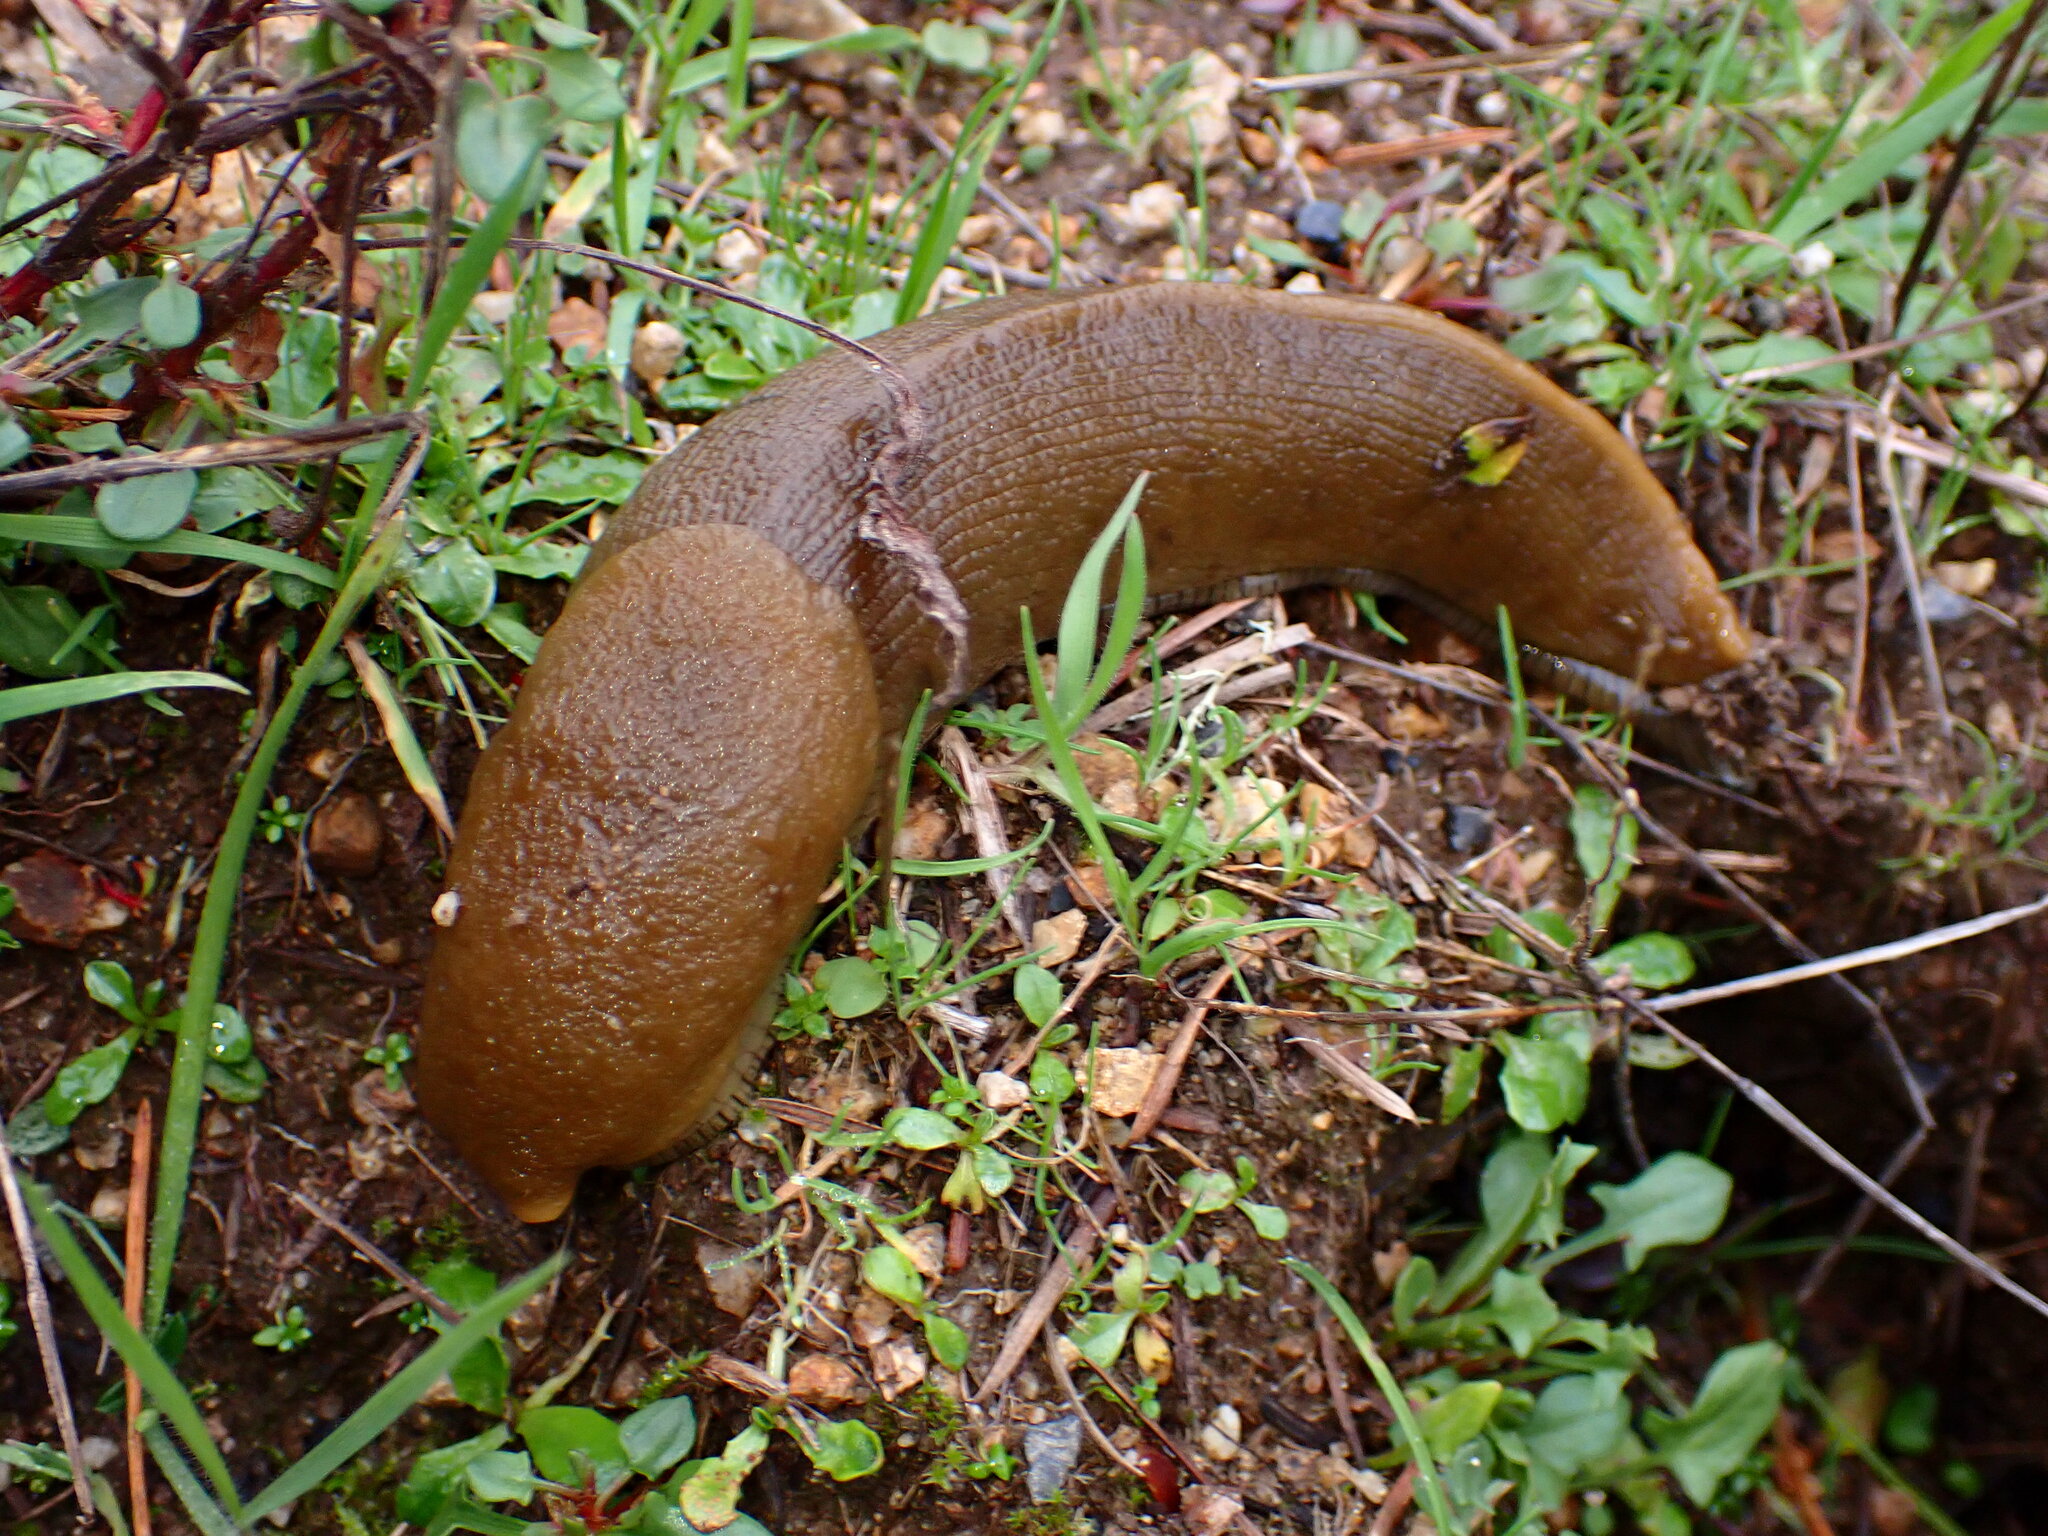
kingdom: Animalia
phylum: Mollusca
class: Gastropoda
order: Stylommatophora
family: Ariolimacidae
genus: Ariolimax
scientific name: Ariolimax buttoni
